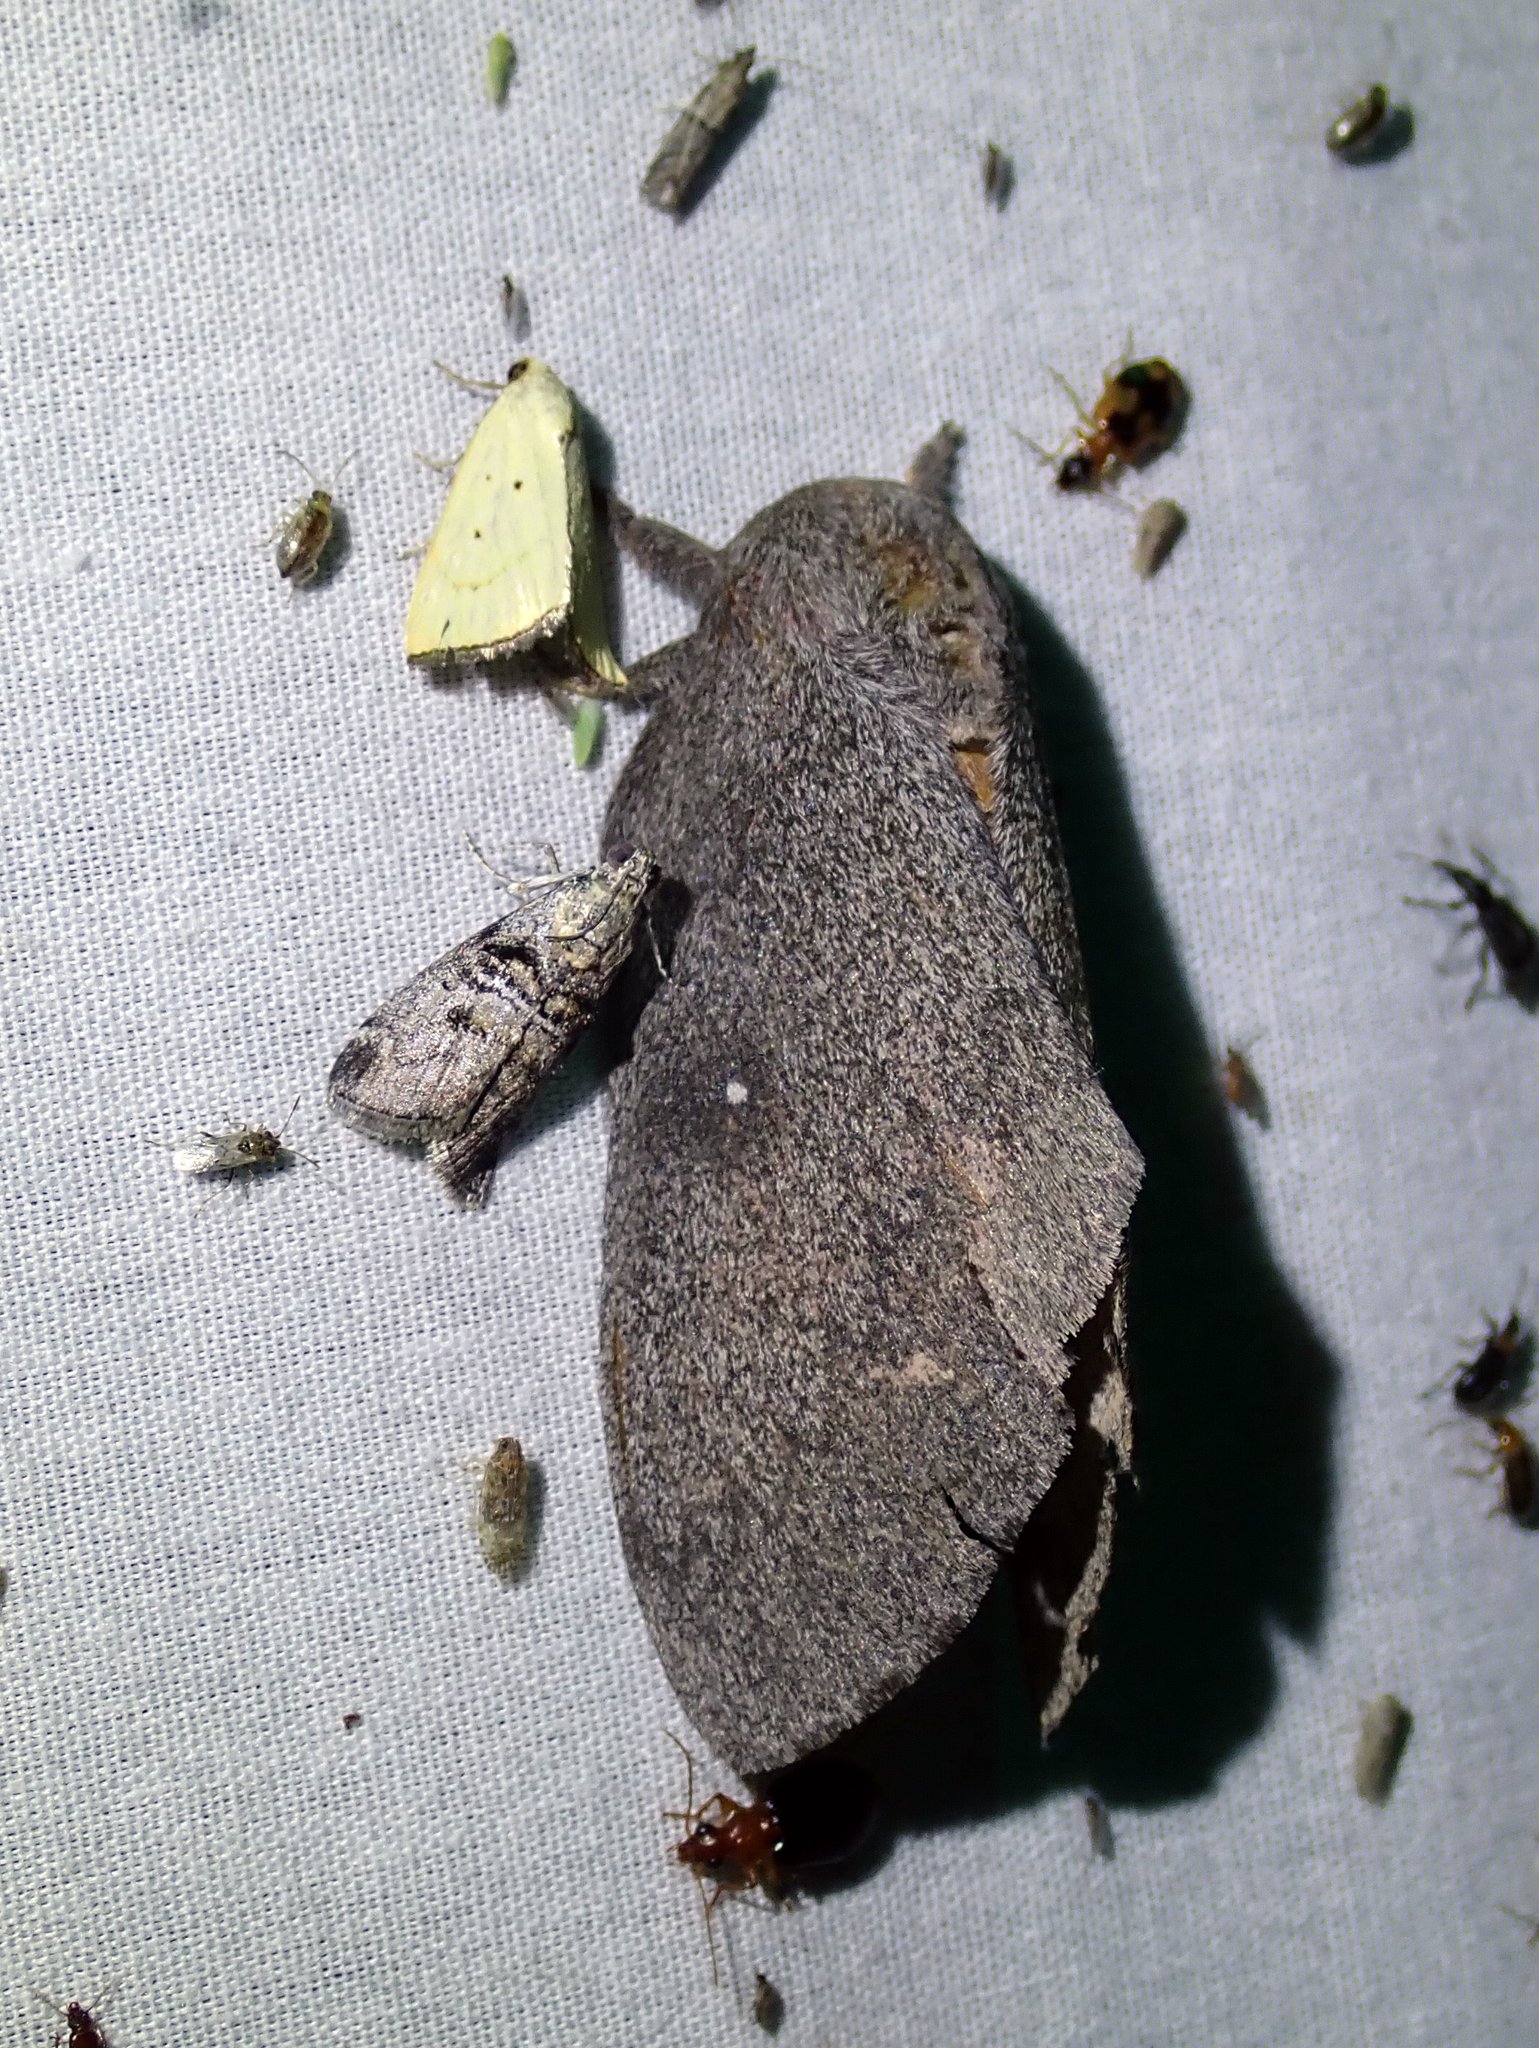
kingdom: Animalia
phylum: Arthropoda
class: Insecta
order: Lepidoptera
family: Saturniidae
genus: Syssphinx
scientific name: Syssphinx hubbardi
